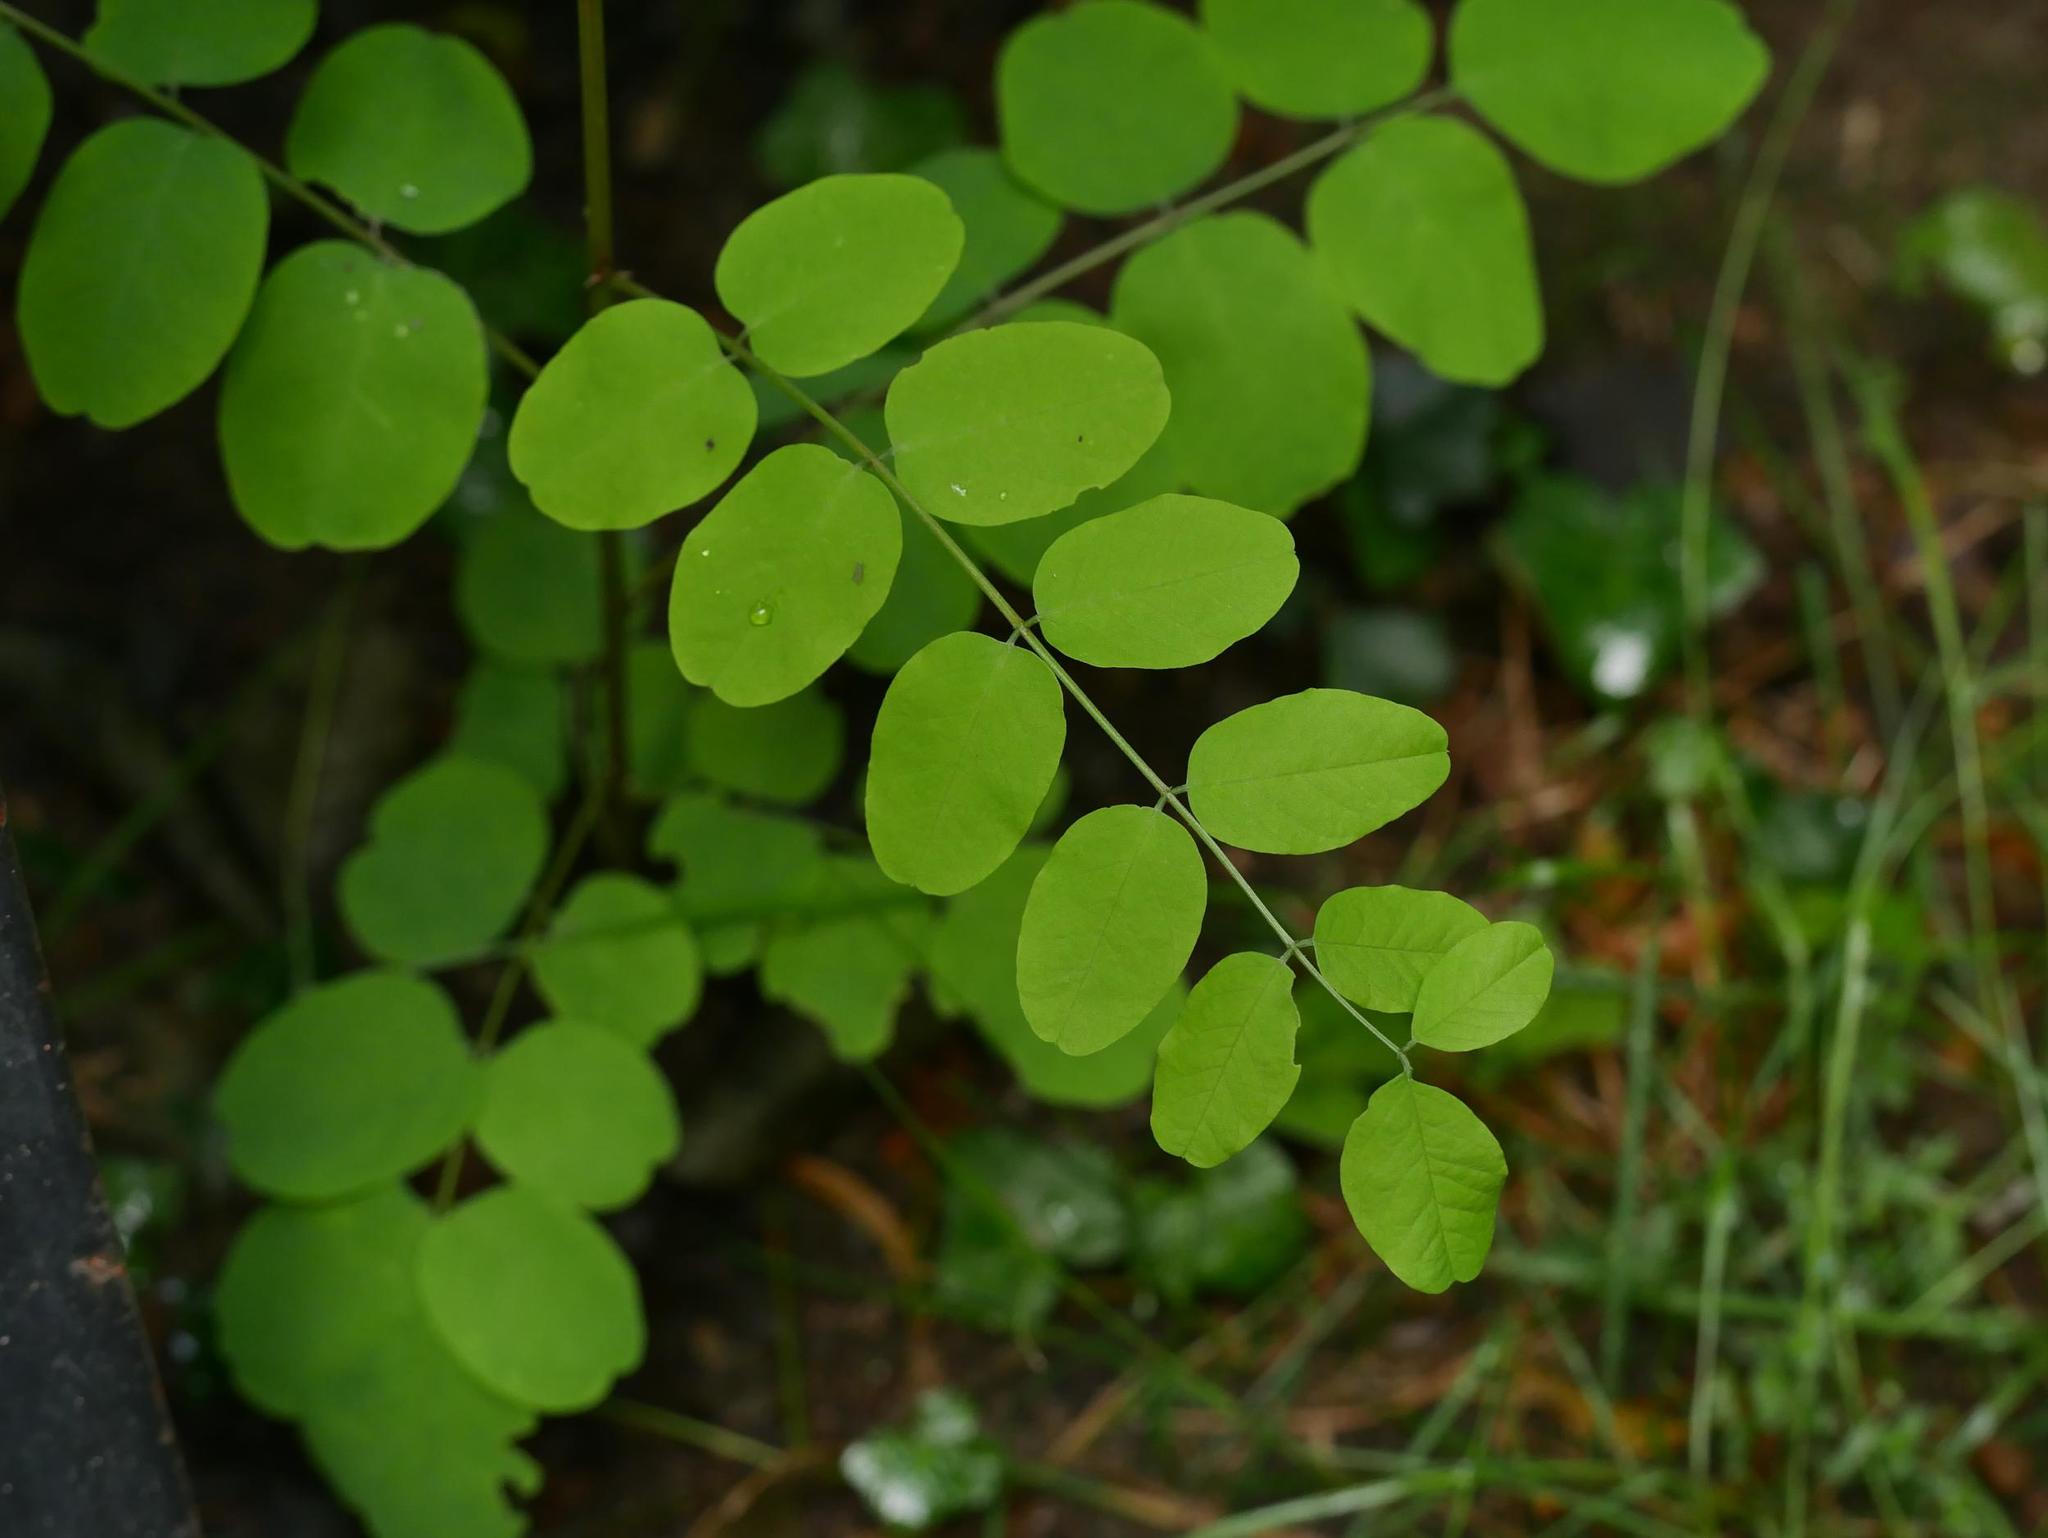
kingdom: Plantae
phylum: Tracheophyta
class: Magnoliopsida
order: Fabales
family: Fabaceae
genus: Robinia
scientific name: Robinia pseudoacacia
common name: Black locust
